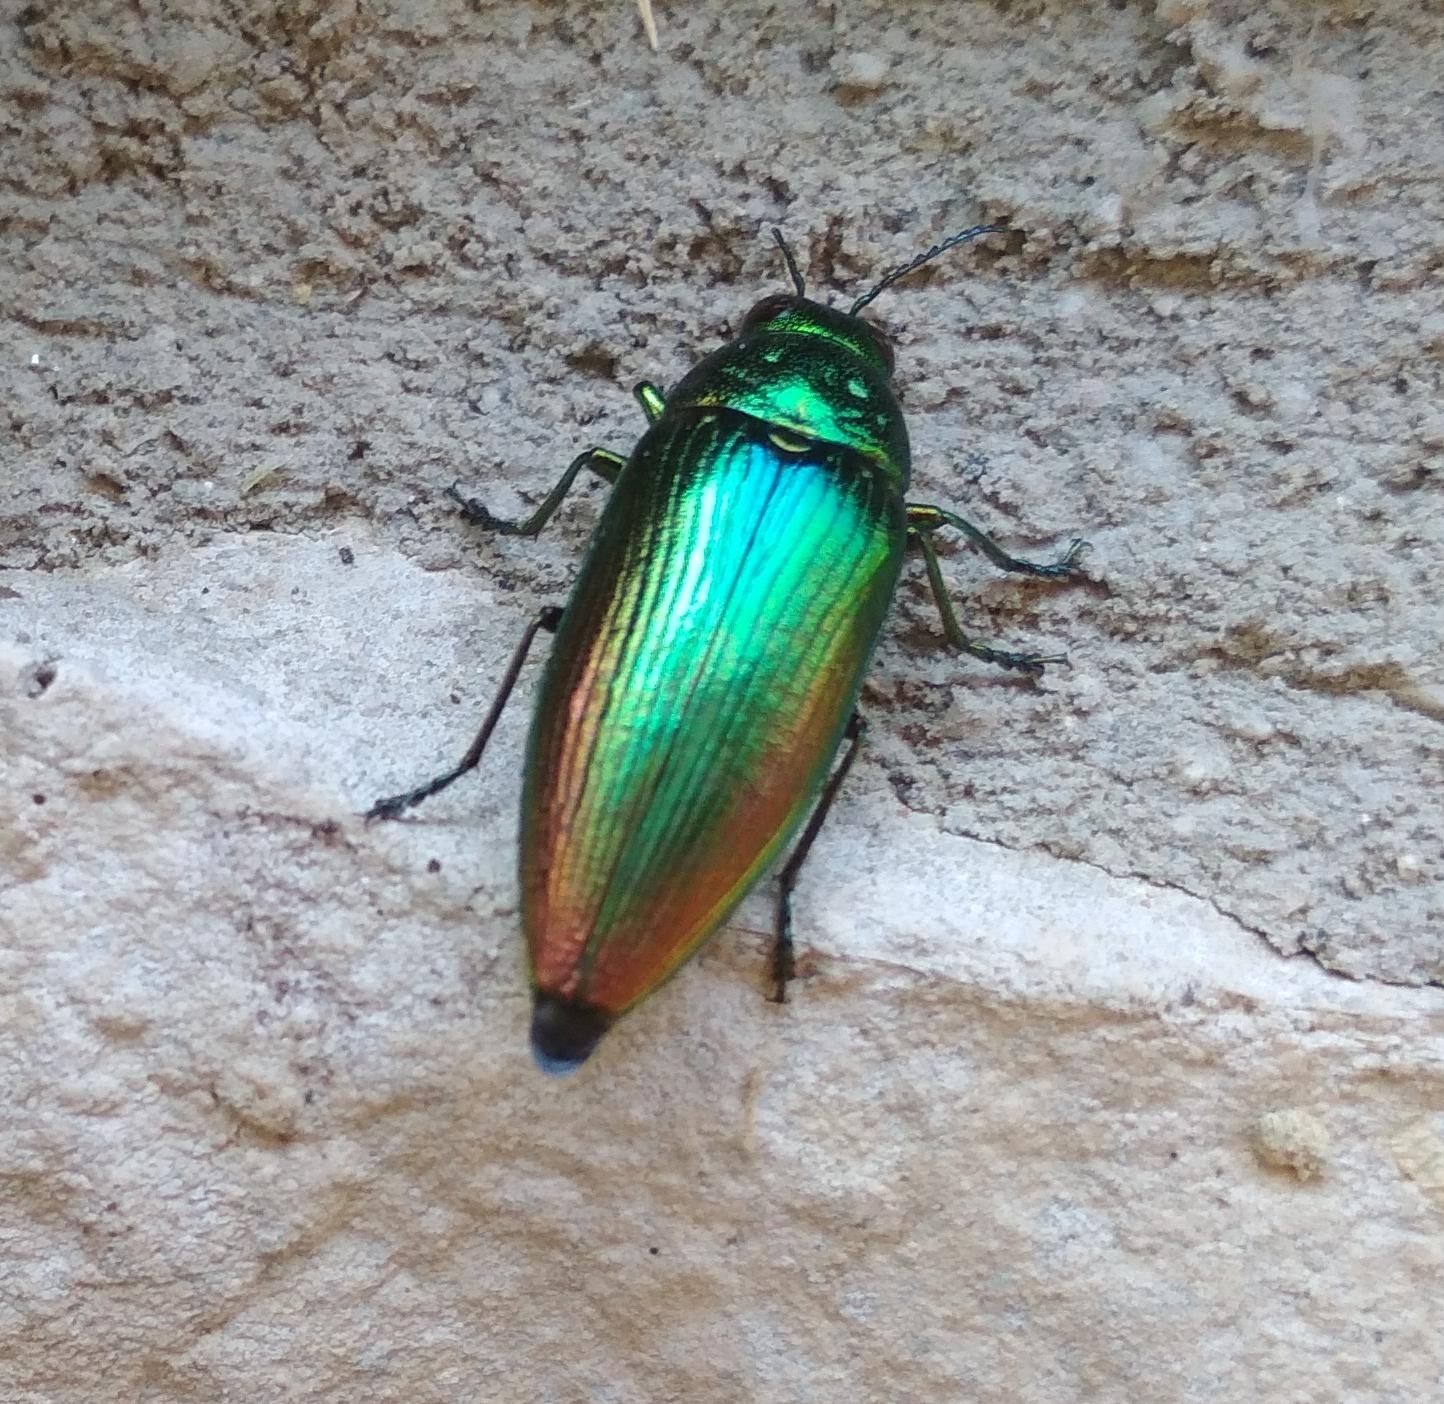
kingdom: Animalia
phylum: Arthropoda
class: Insecta
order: Coleoptera
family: Buprestidae
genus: Eurythyrea
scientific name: Eurythyrea micans
